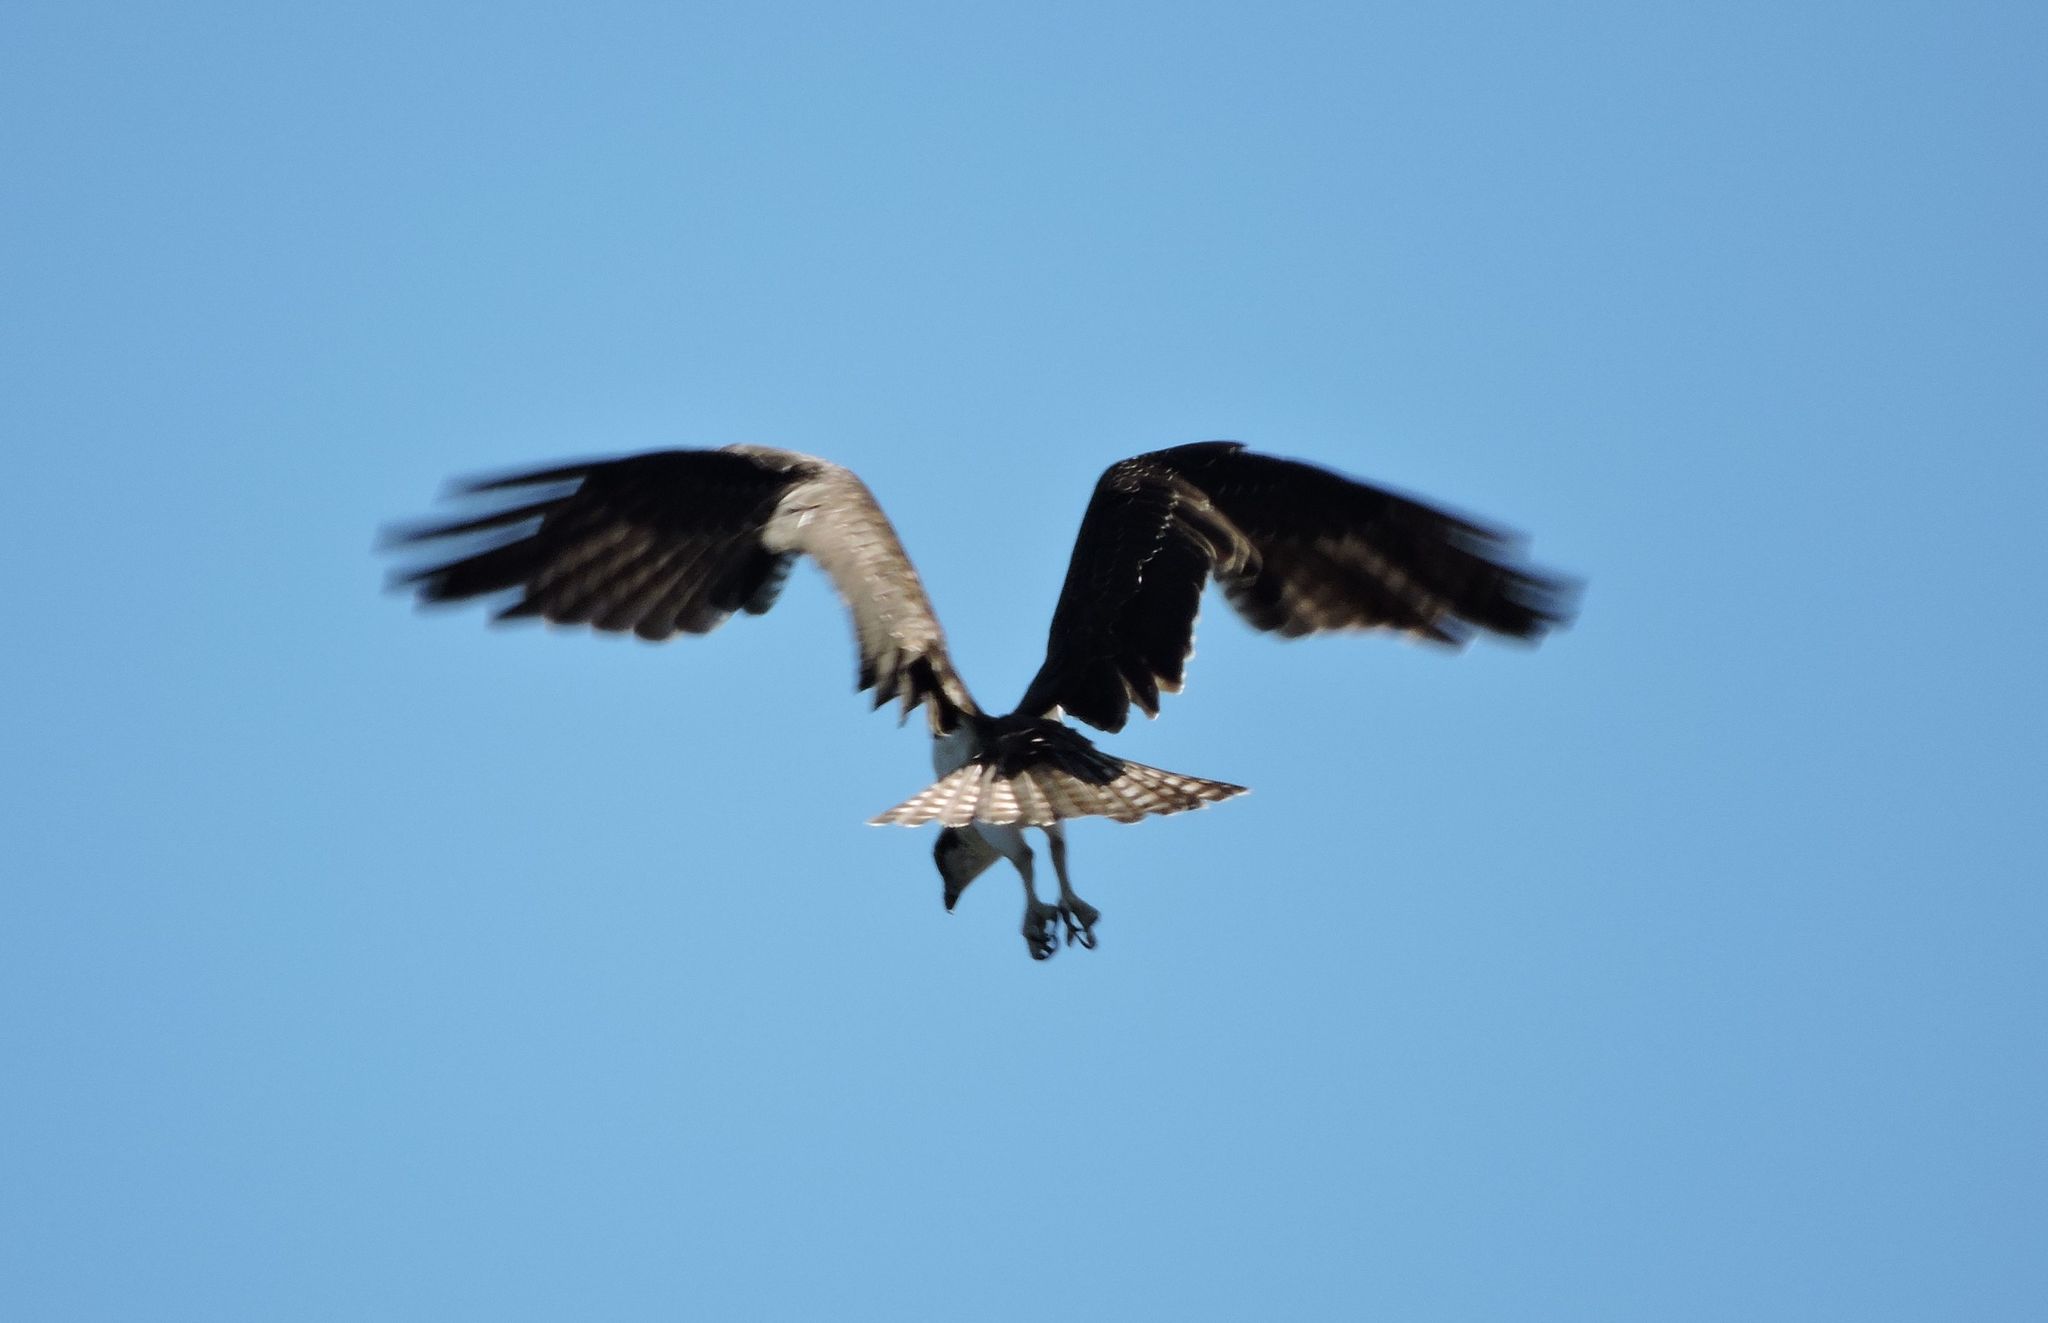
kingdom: Animalia
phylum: Chordata
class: Aves
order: Accipitriformes
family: Pandionidae
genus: Pandion
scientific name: Pandion haliaetus
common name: Osprey
